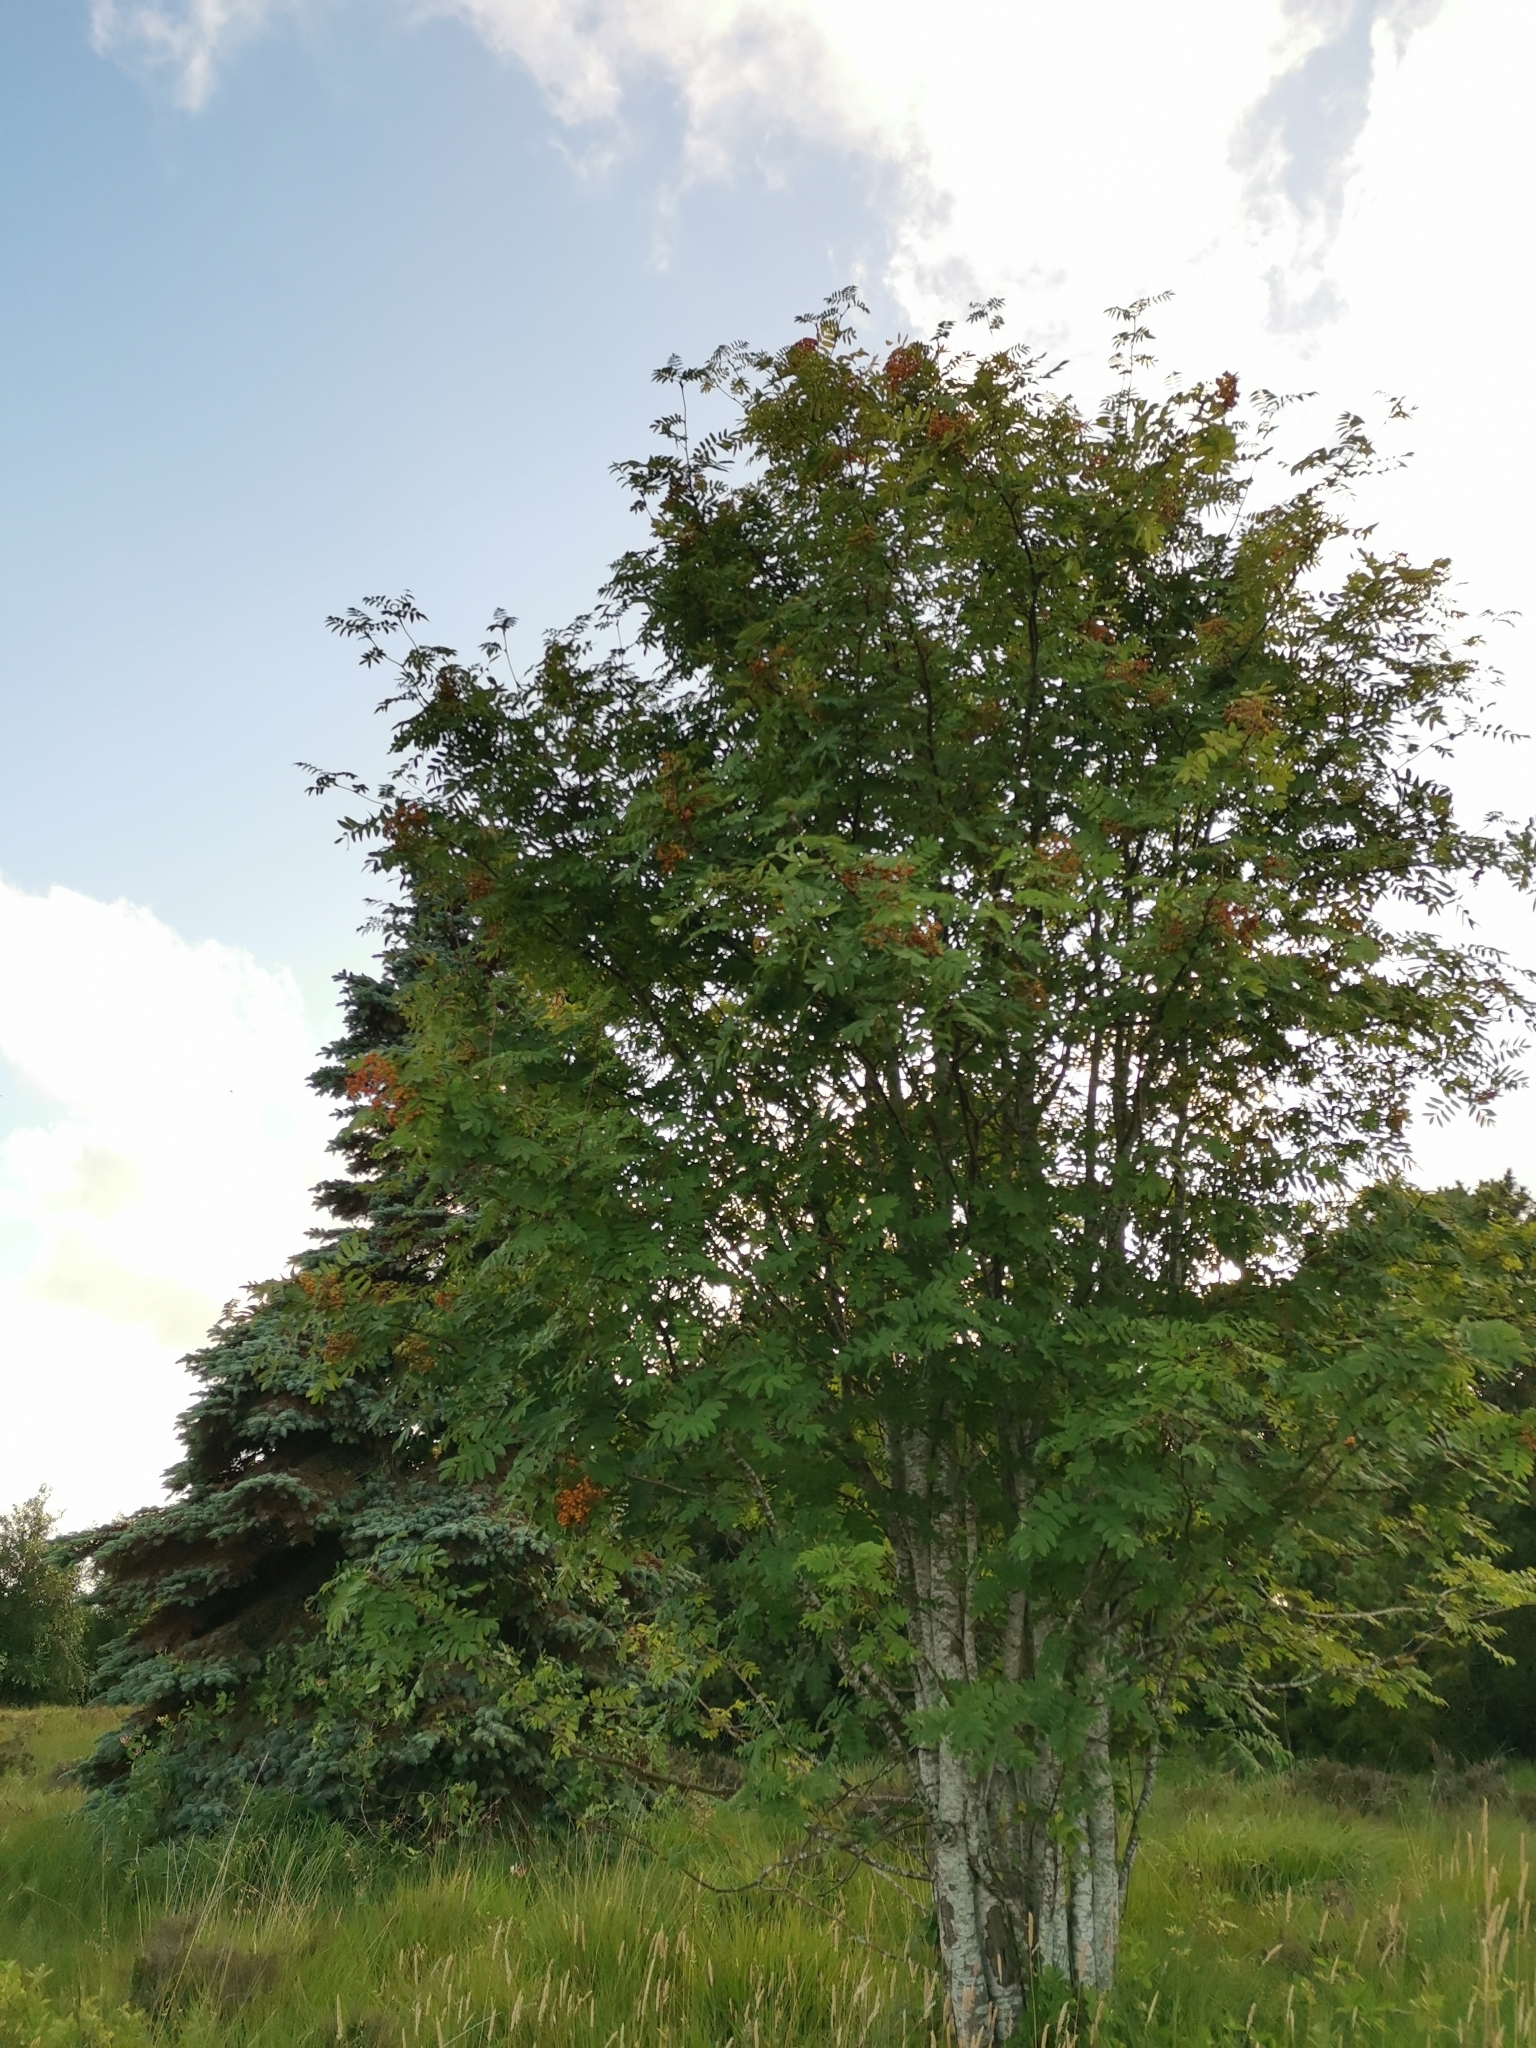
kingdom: Plantae
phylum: Tracheophyta
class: Magnoliopsida
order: Rosales
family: Rosaceae
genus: Sorbus
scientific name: Sorbus aucuparia
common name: Rowan
